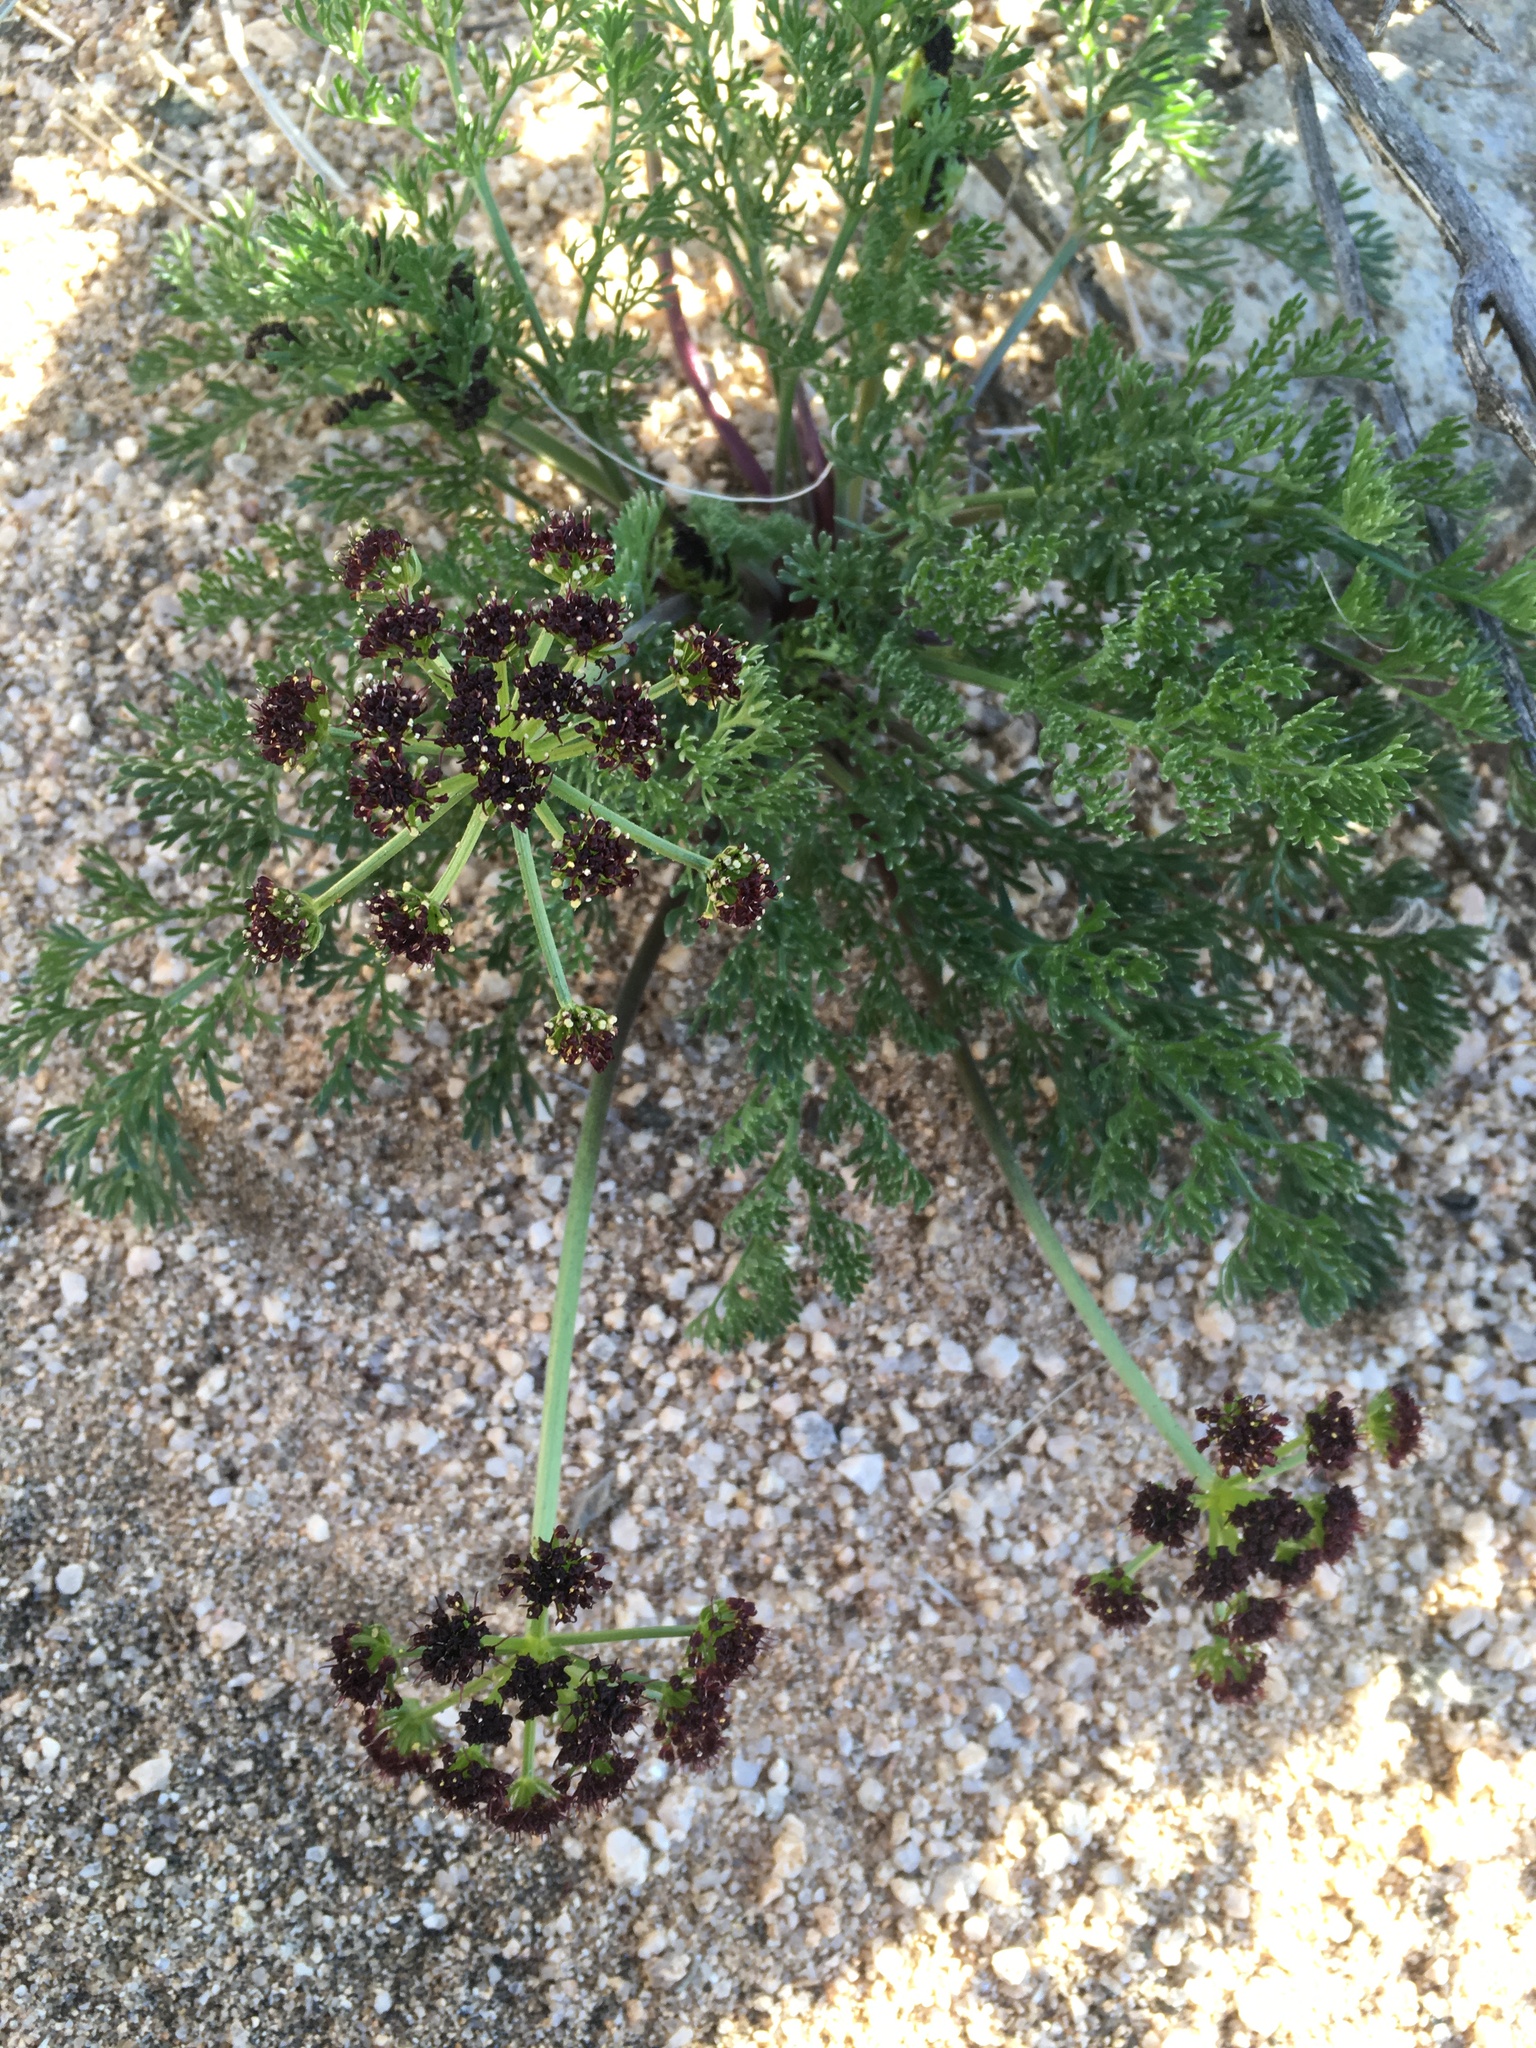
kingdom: Plantae
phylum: Tracheophyta
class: Magnoliopsida
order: Apiales
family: Apiaceae
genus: Lomatium
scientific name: Lomatium mohavense
